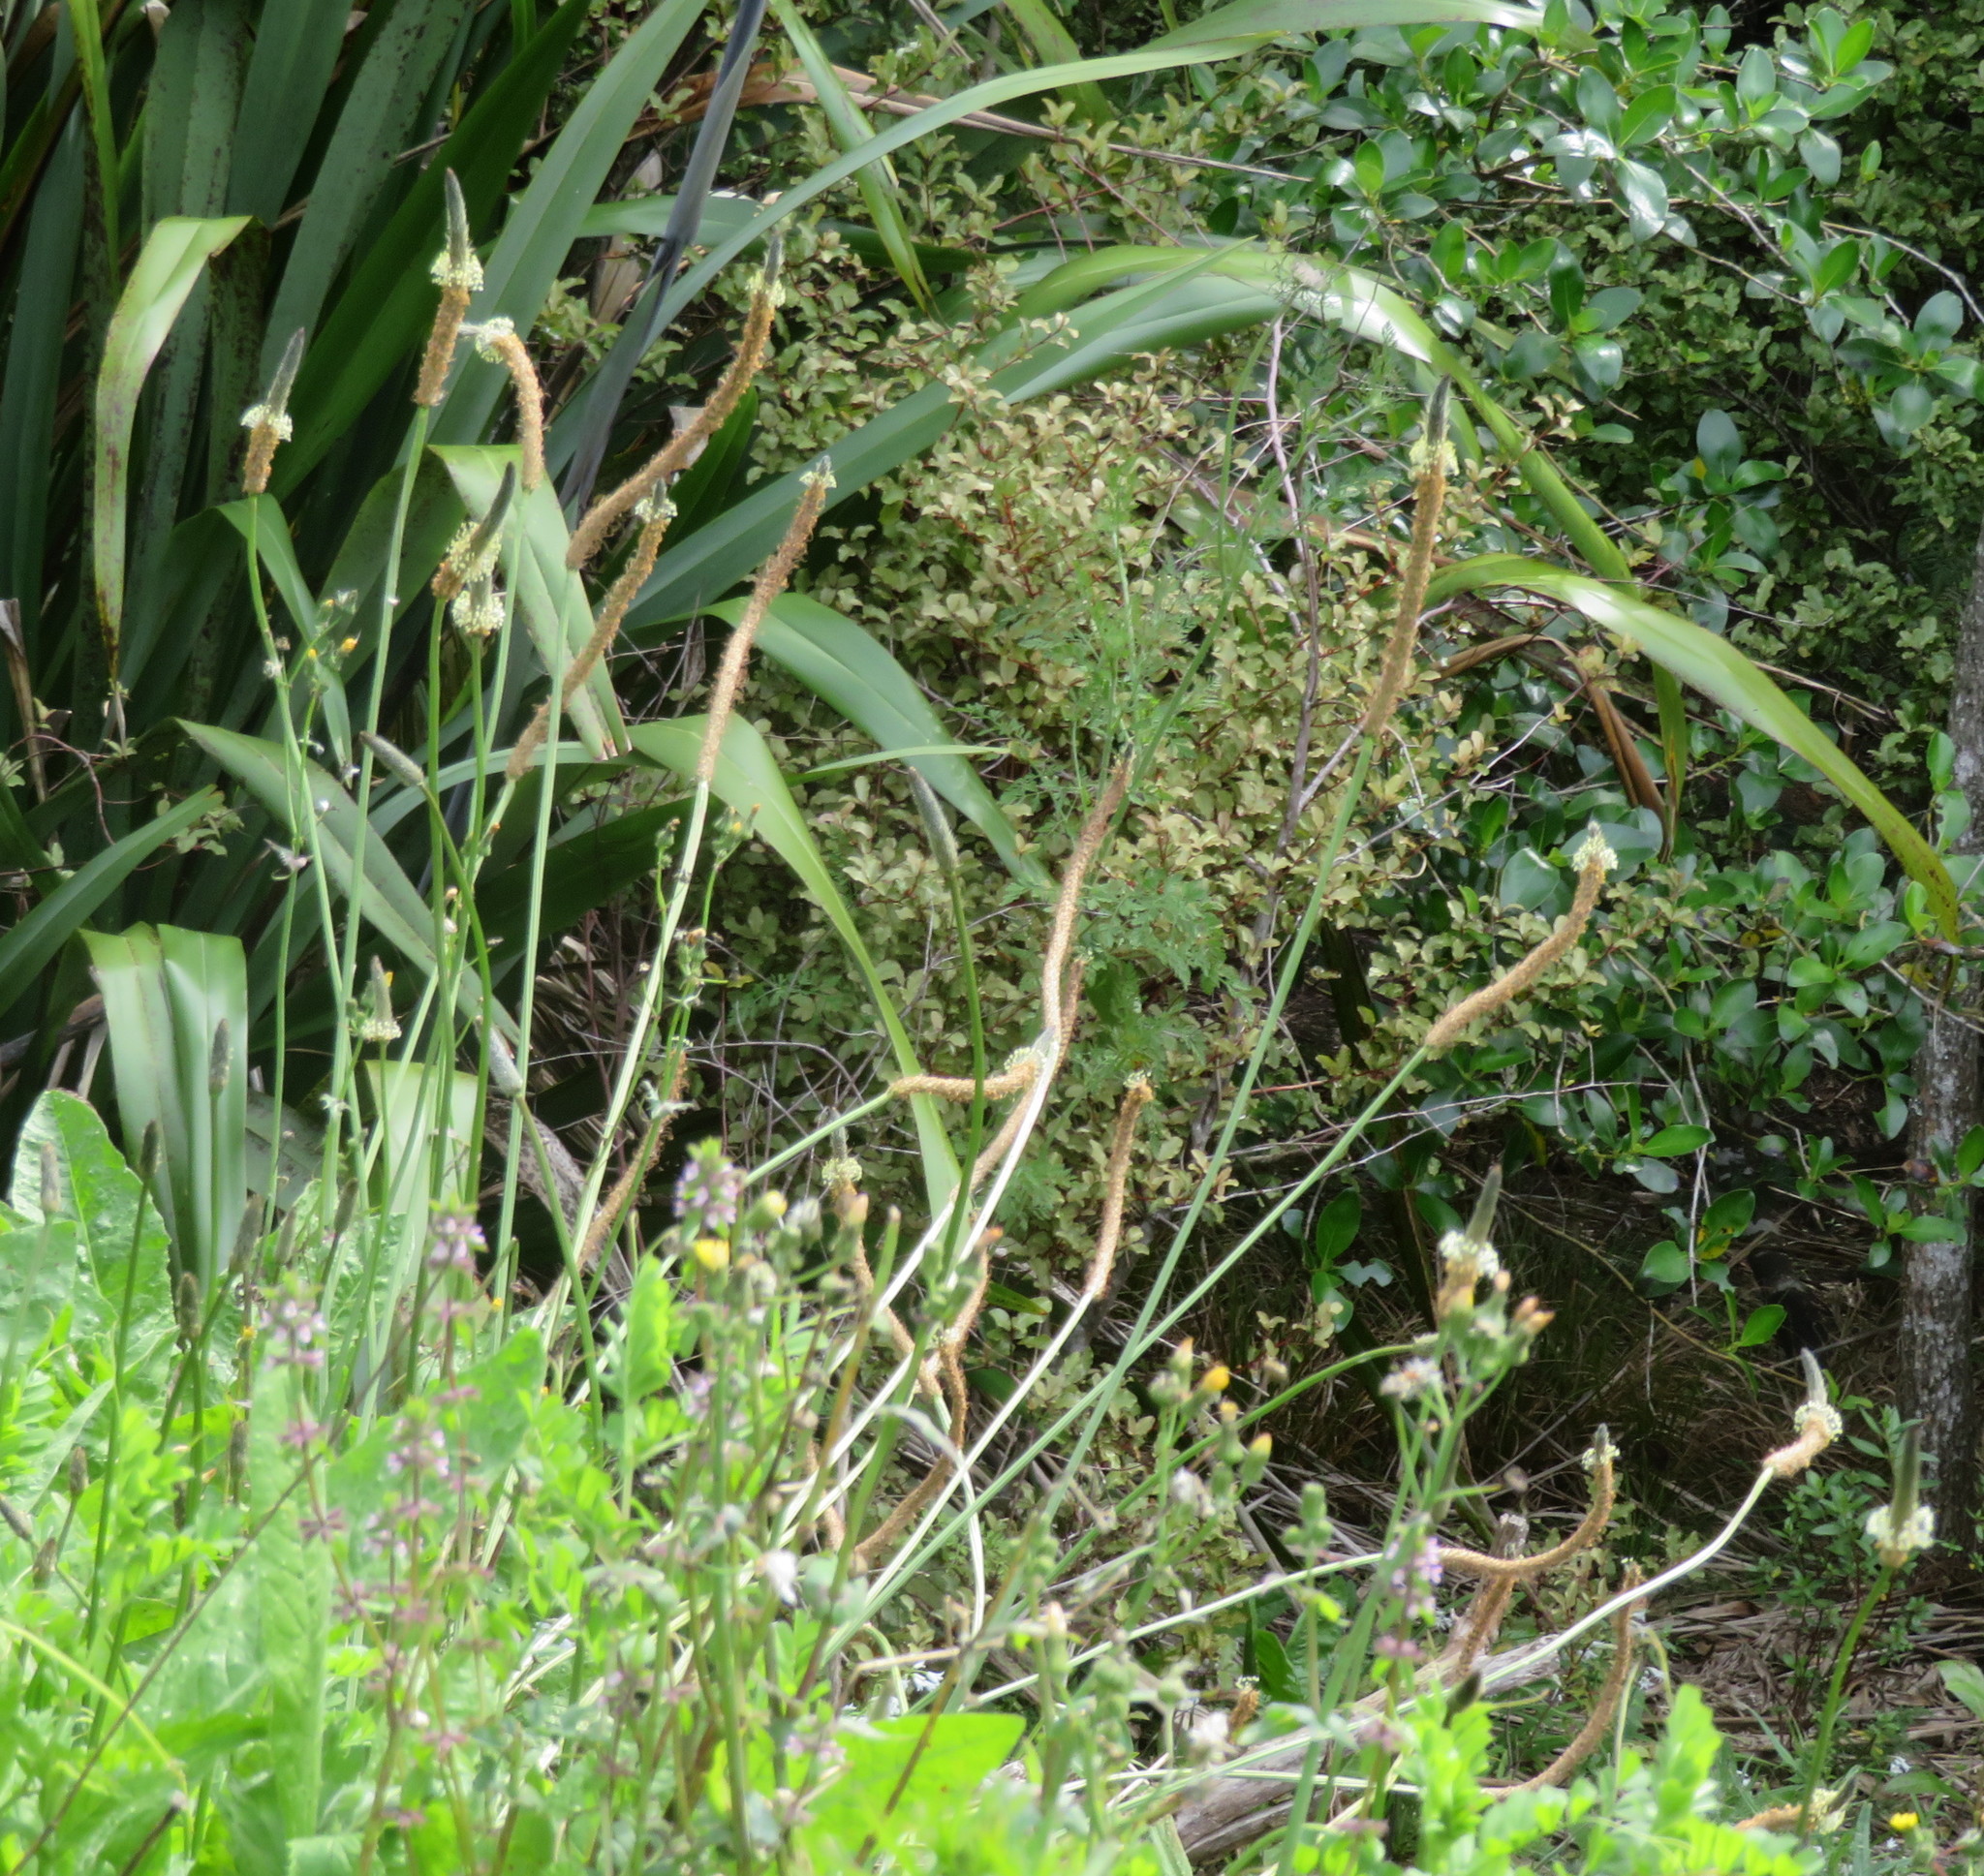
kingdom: Plantae
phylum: Tracheophyta
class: Magnoliopsida
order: Lamiales
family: Plantaginaceae
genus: Plantago
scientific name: Plantago lanceolata
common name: Ribwort plantain
